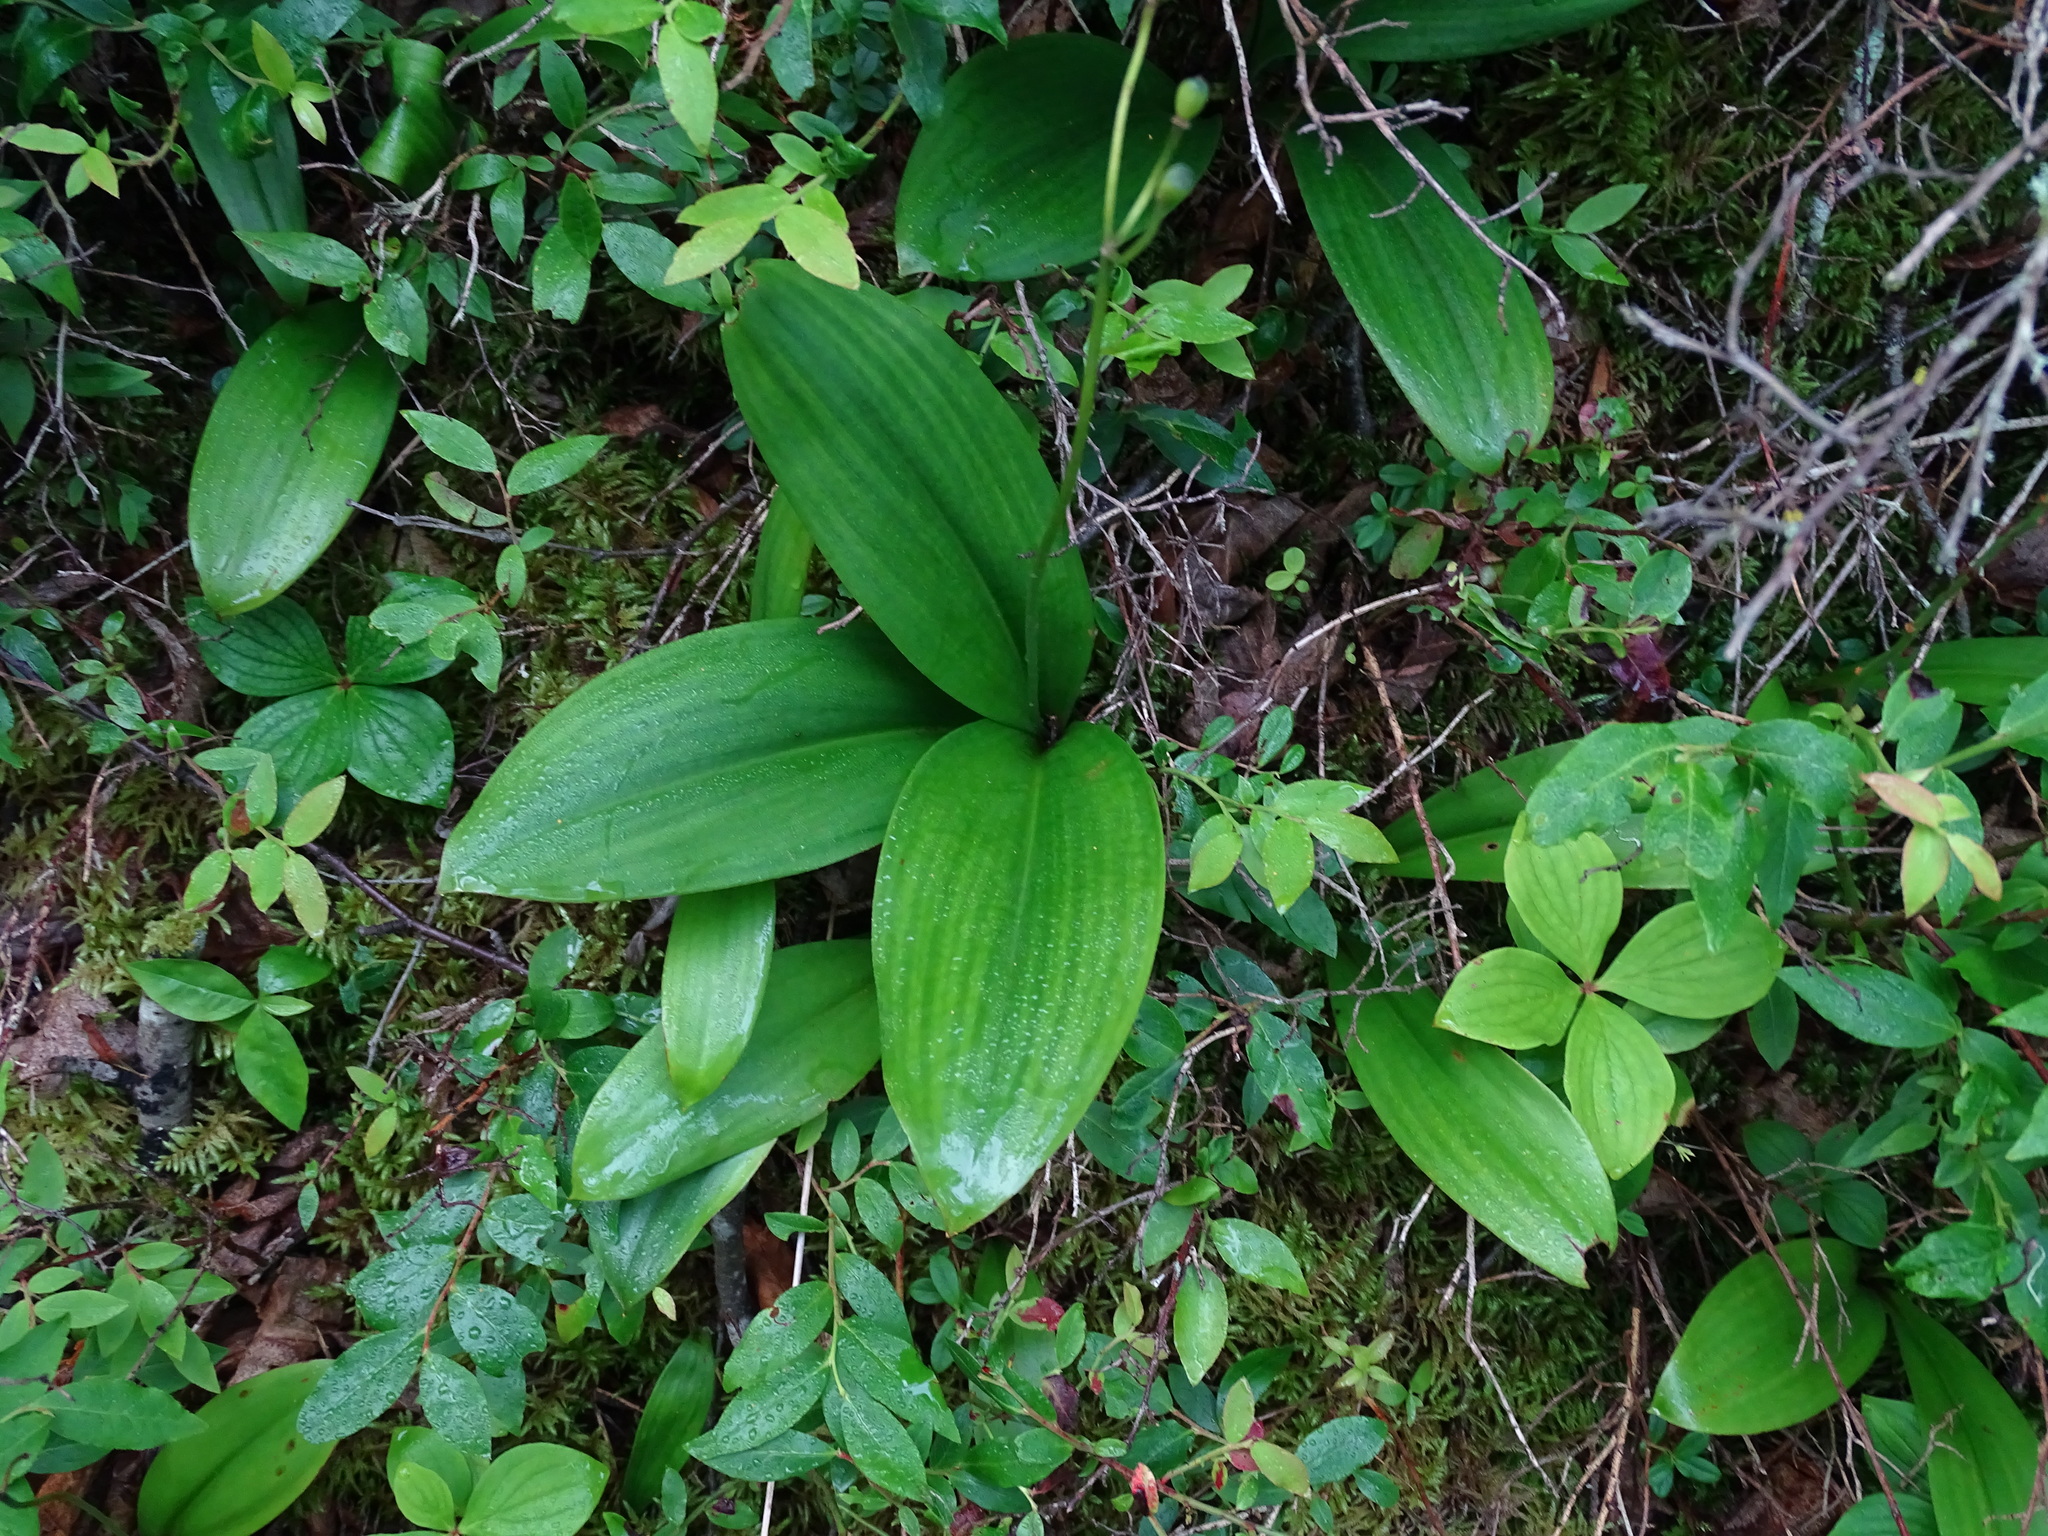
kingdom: Plantae
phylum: Tracheophyta
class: Liliopsida
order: Liliales
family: Liliaceae
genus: Clintonia
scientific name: Clintonia borealis
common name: Yellow clintonia
